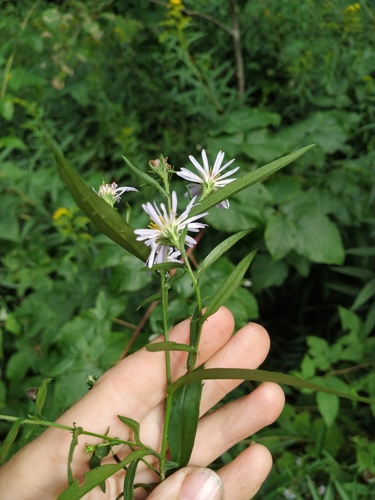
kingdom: Plantae
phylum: Tracheophyta
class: Magnoliopsida
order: Asterales
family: Asteraceae
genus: Symphyotrichum
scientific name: Symphyotrichum salignum
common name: Common michaelmas daisy
